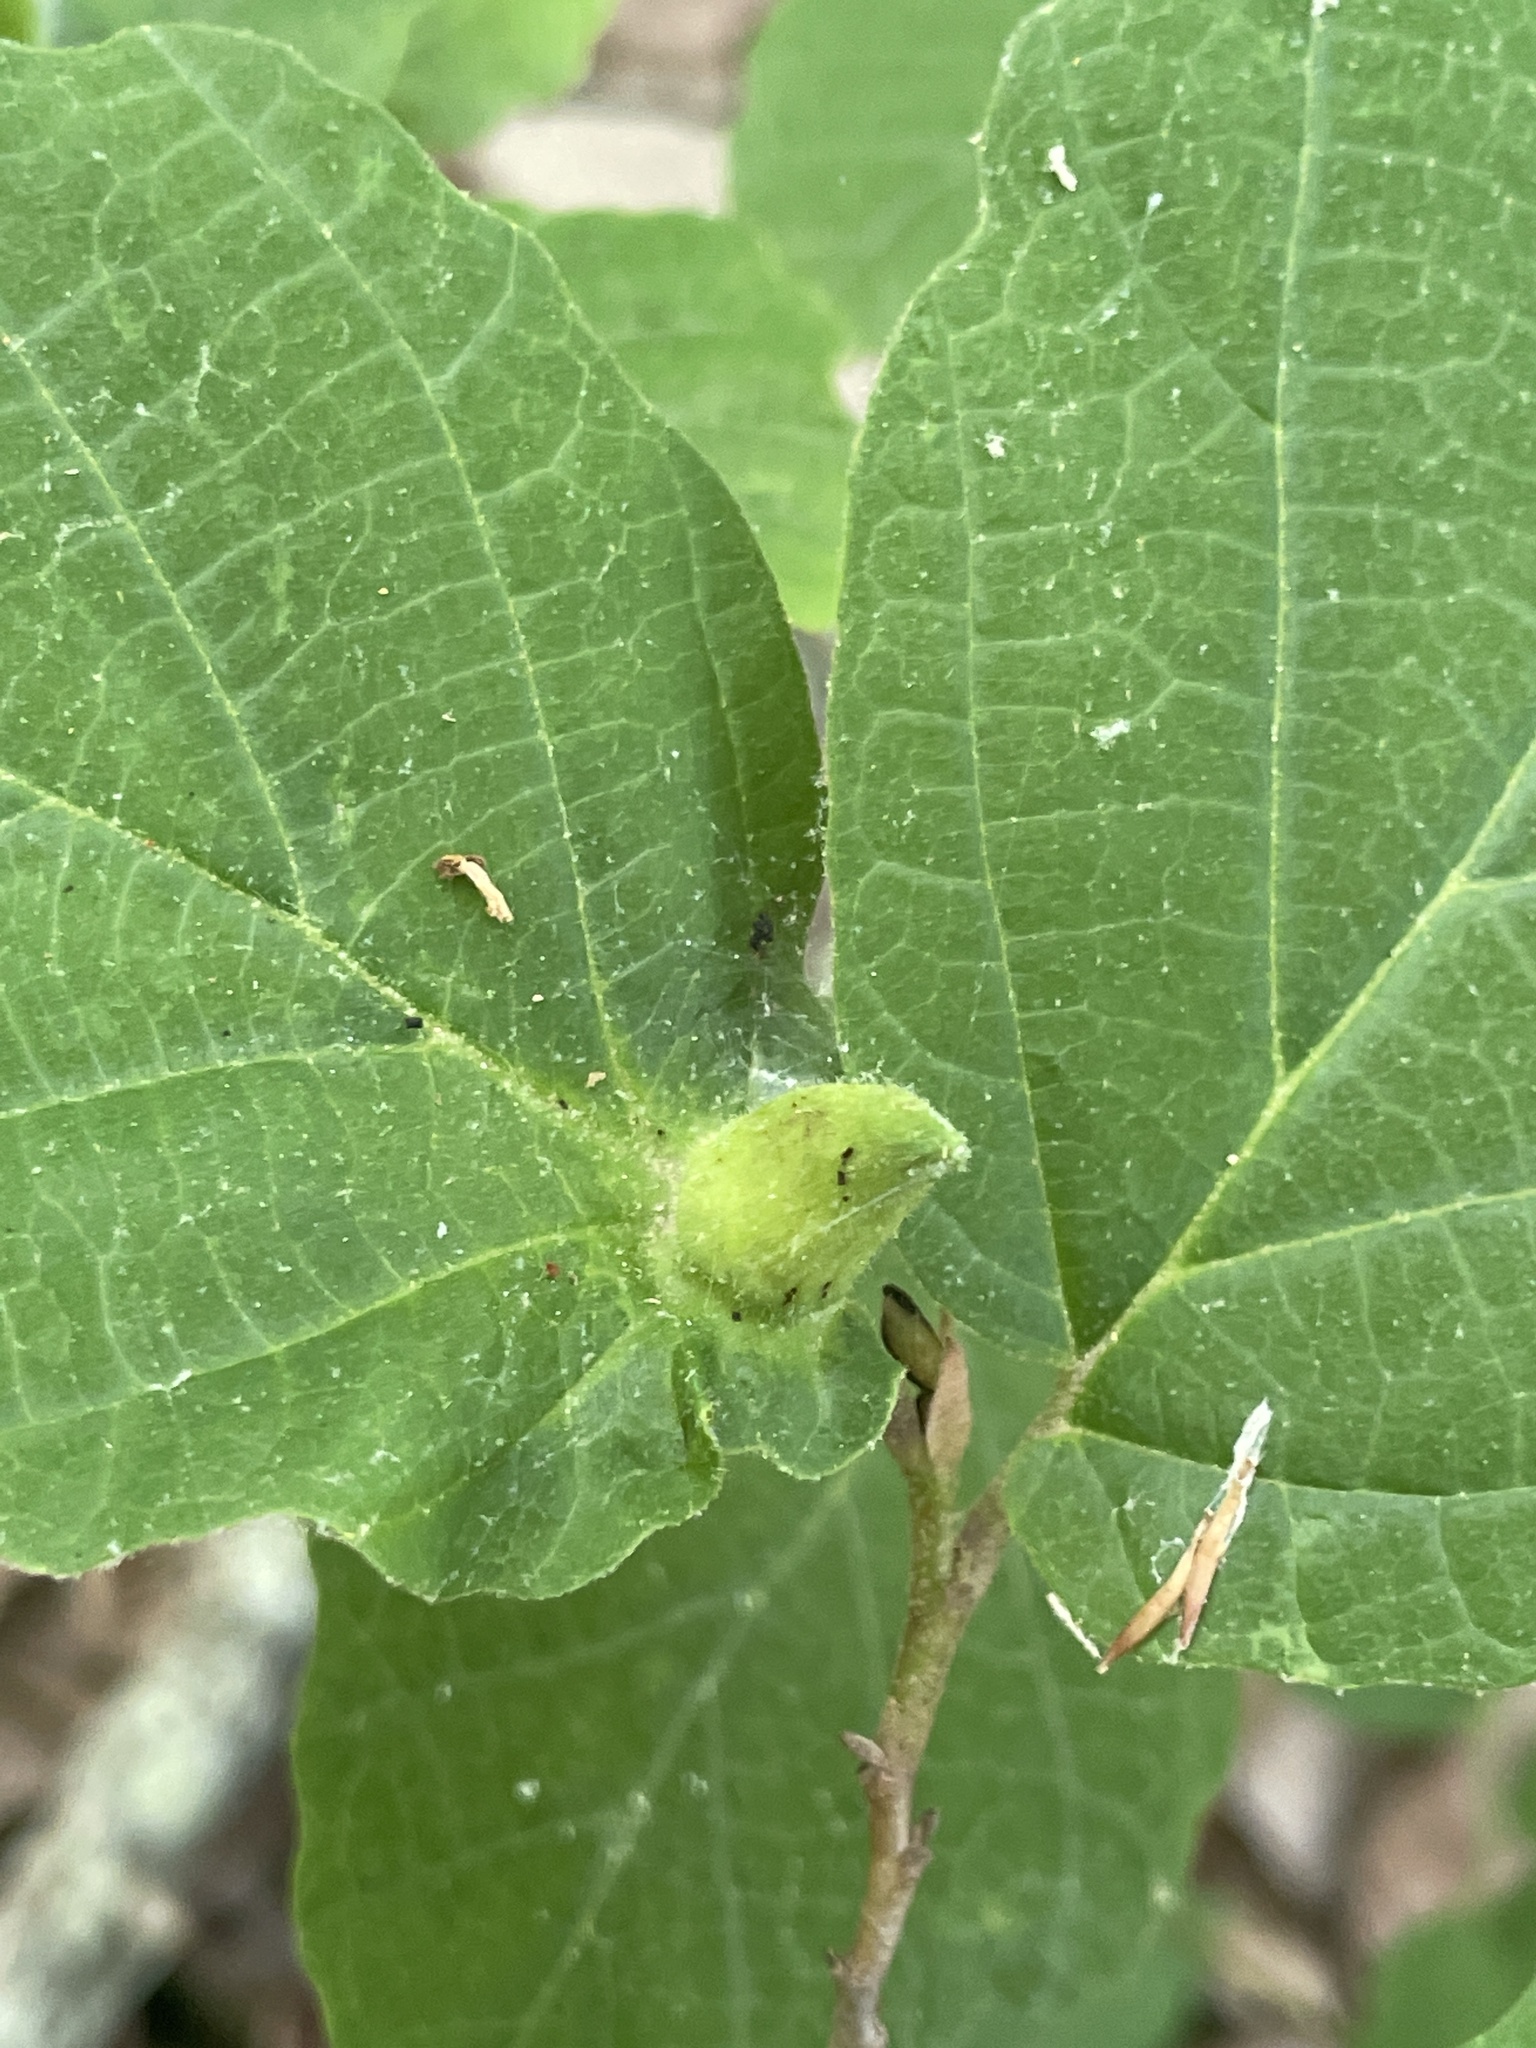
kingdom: Animalia
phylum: Arthropoda
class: Insecta
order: Hemiptera
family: Aphididae
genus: Hormaphis
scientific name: Hormaphis hamamelidis
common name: Witch-hazel cone gall aphid
